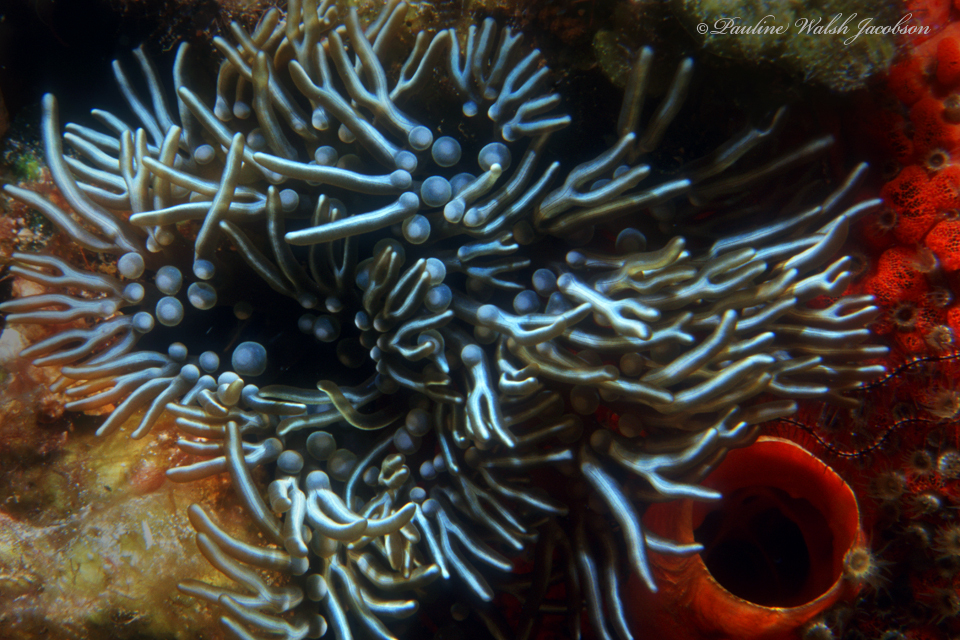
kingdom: Animalia
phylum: Cnidaria
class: Anthozoa
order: Actiniaria
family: Aliciidae
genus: Lebrunia
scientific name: Lebrunia neglecta
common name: Branching anemone
